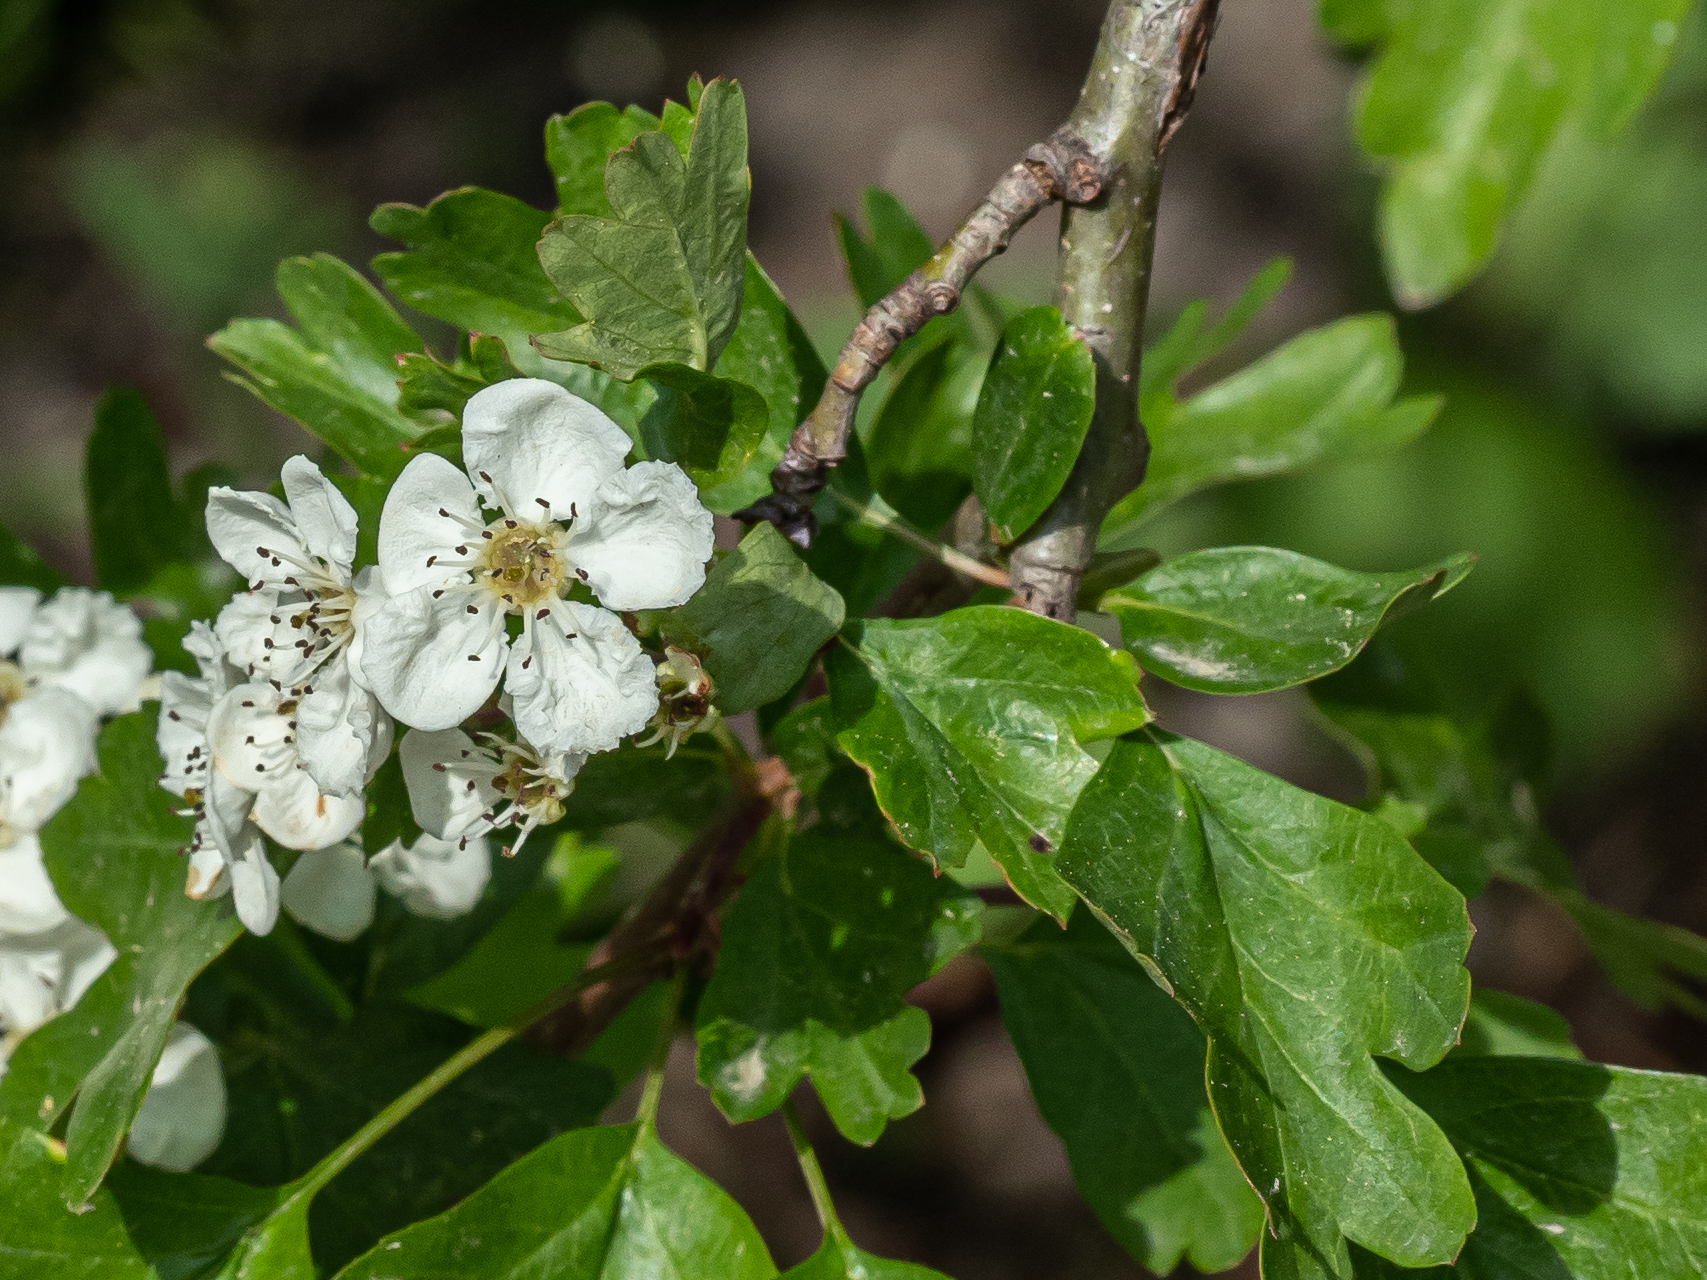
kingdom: Plantae
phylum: Tracheophyta
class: Magnoliopsida
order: Rosales
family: Rosaceae
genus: Crataegus
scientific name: Crataegus monogyna
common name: Hawthorn
